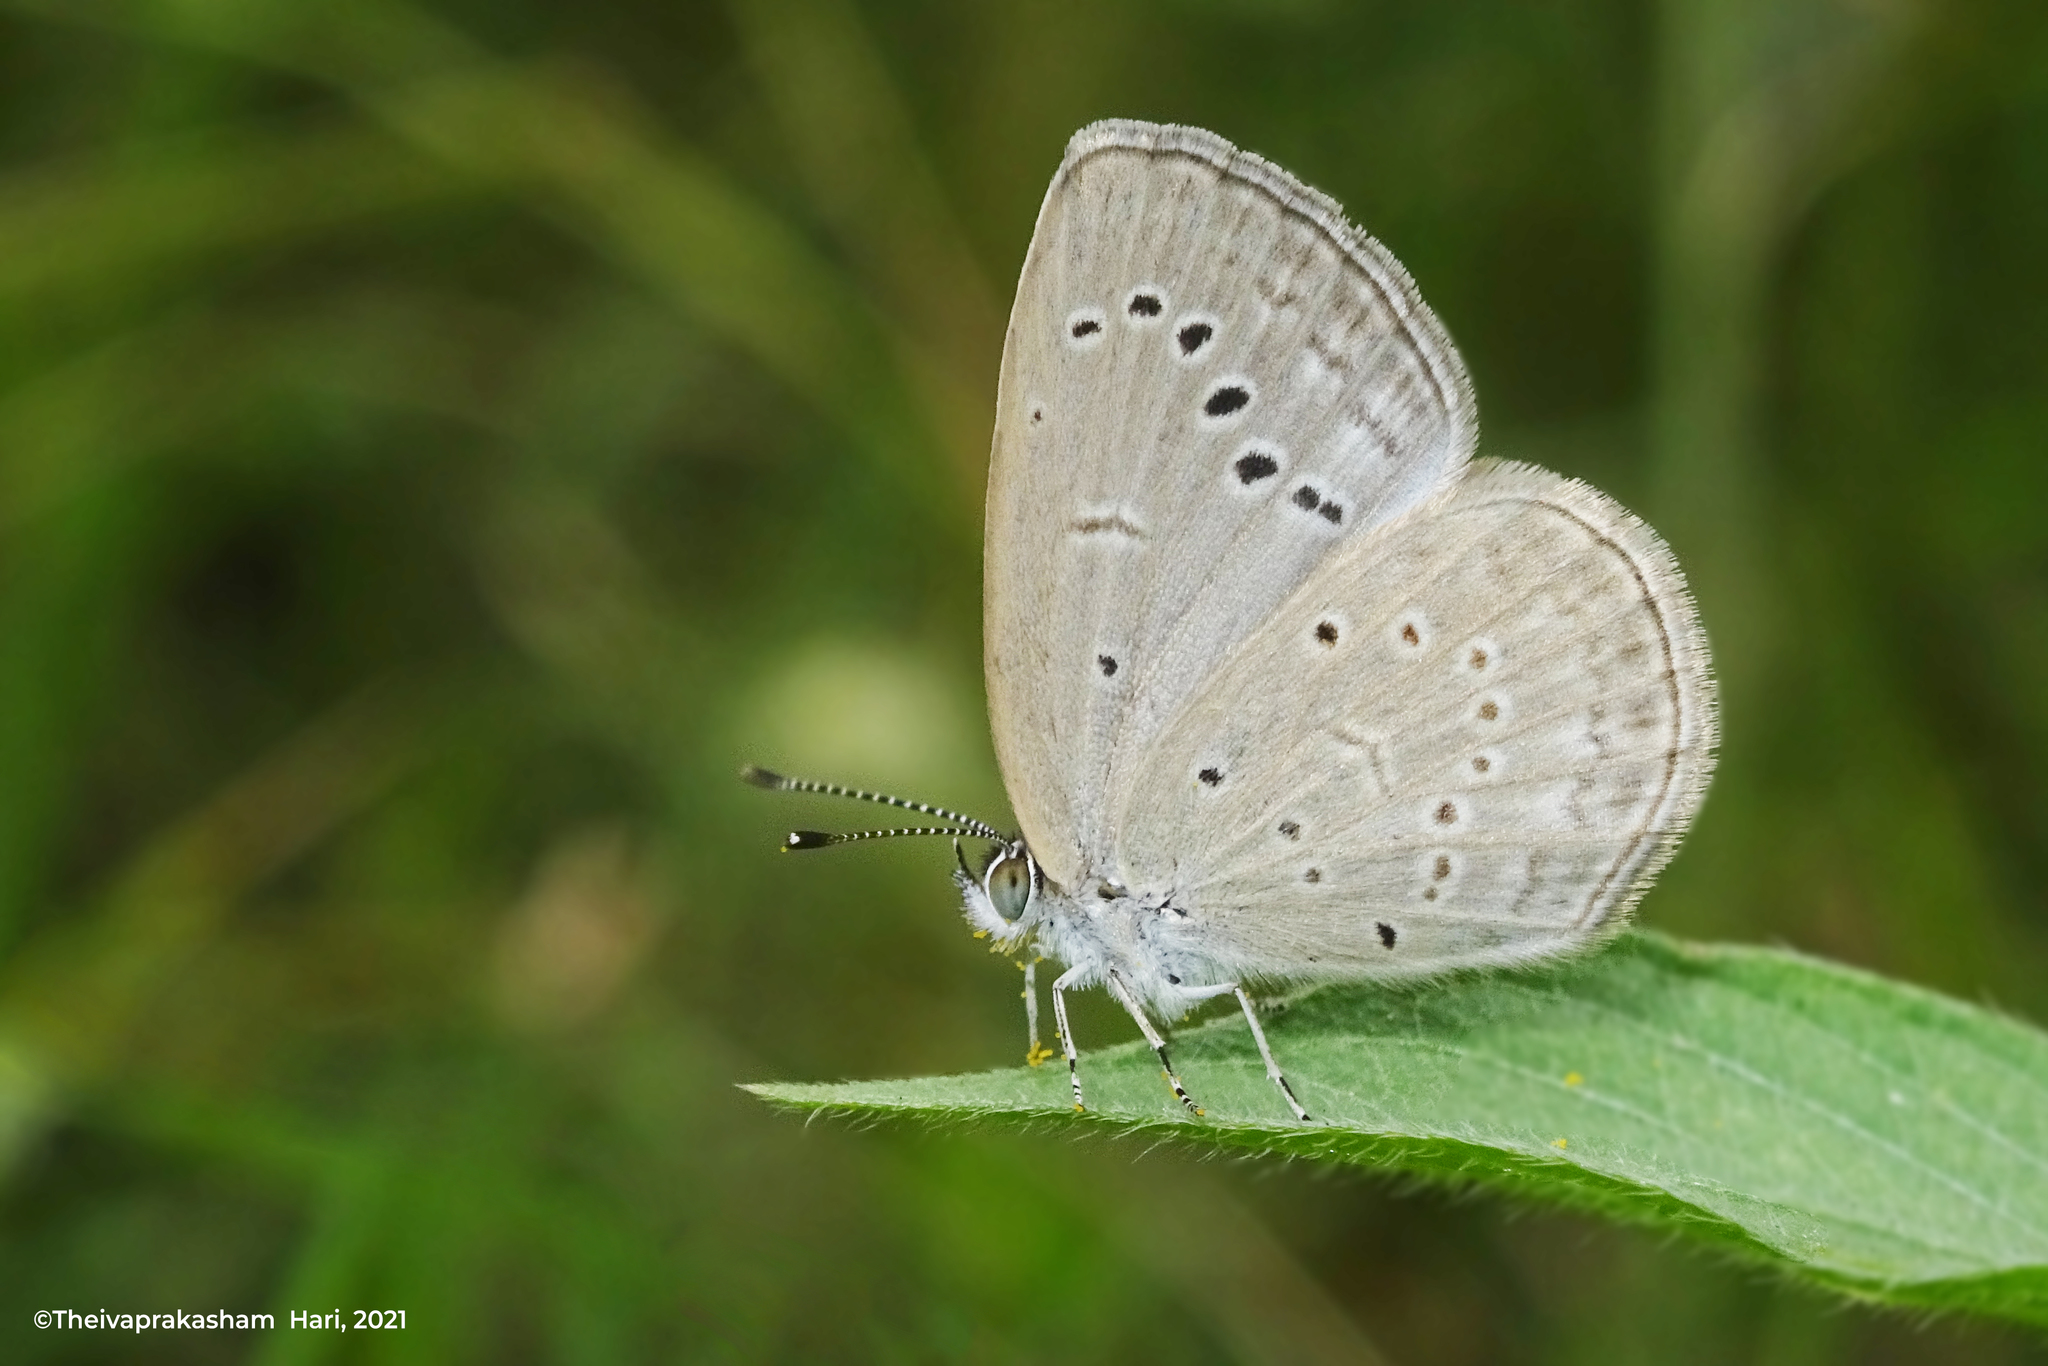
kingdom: Animalia
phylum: Arthropoda
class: Insecta
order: Lepidoptera
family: Lycaenidae
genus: Pseudozizeeria
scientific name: Pseudozizeeria maha
